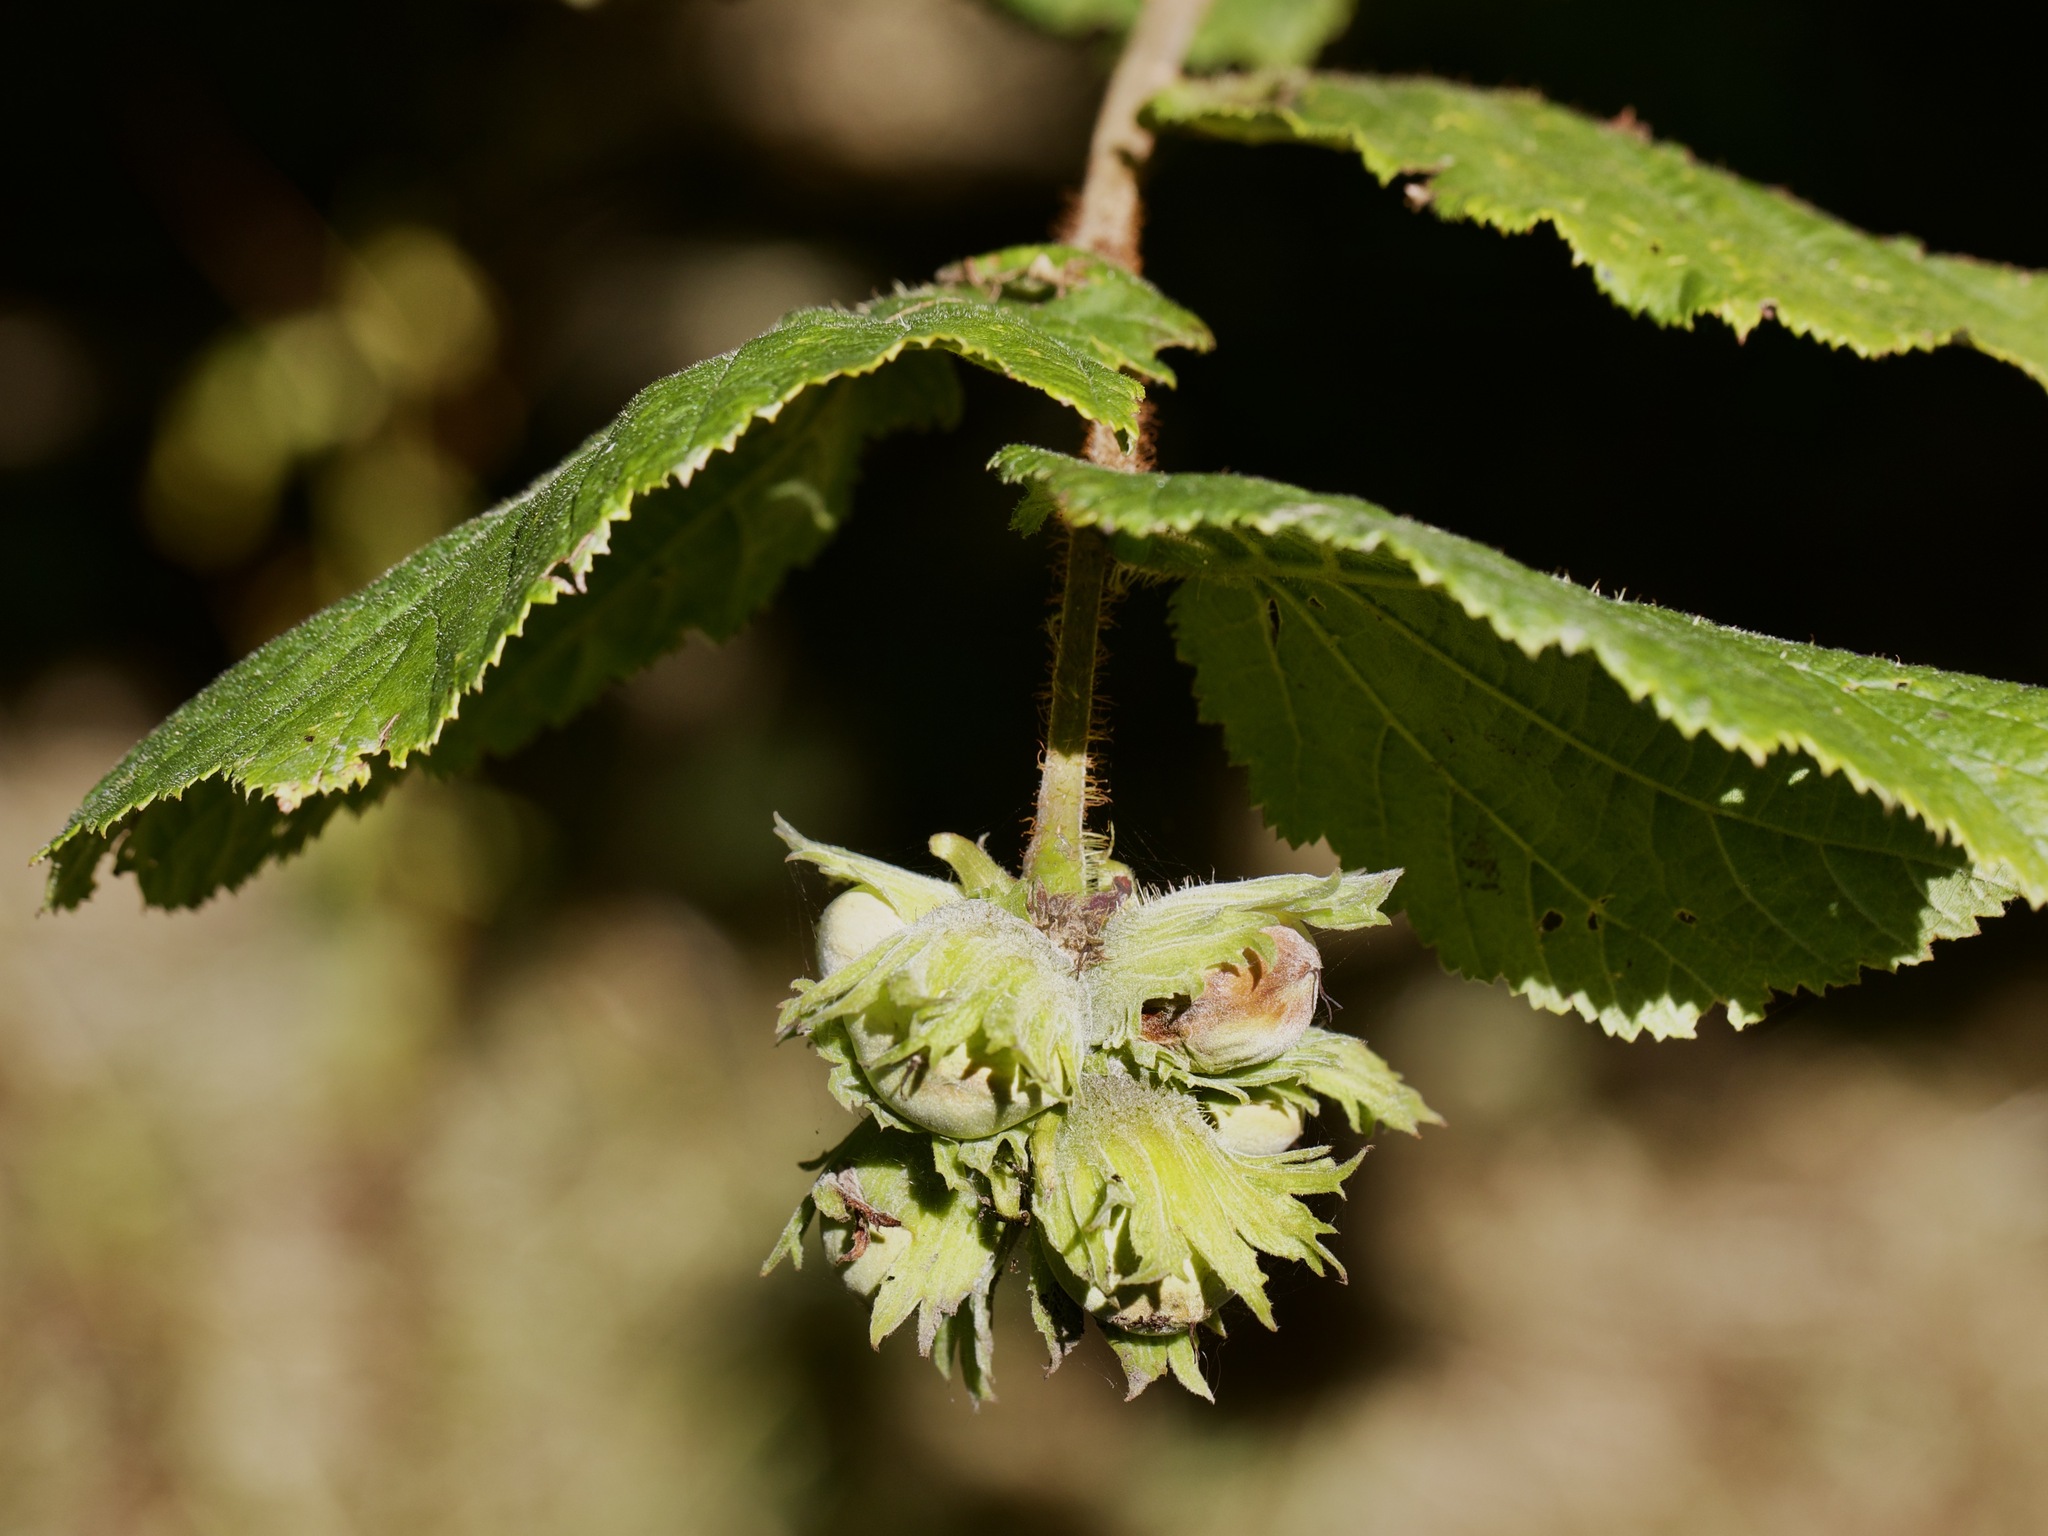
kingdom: Plantae
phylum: Tracheophyta
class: Magnoliopsida
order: Fagales
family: Betulaceae
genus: Corylus
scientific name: Corylus avellana
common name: European hazel
